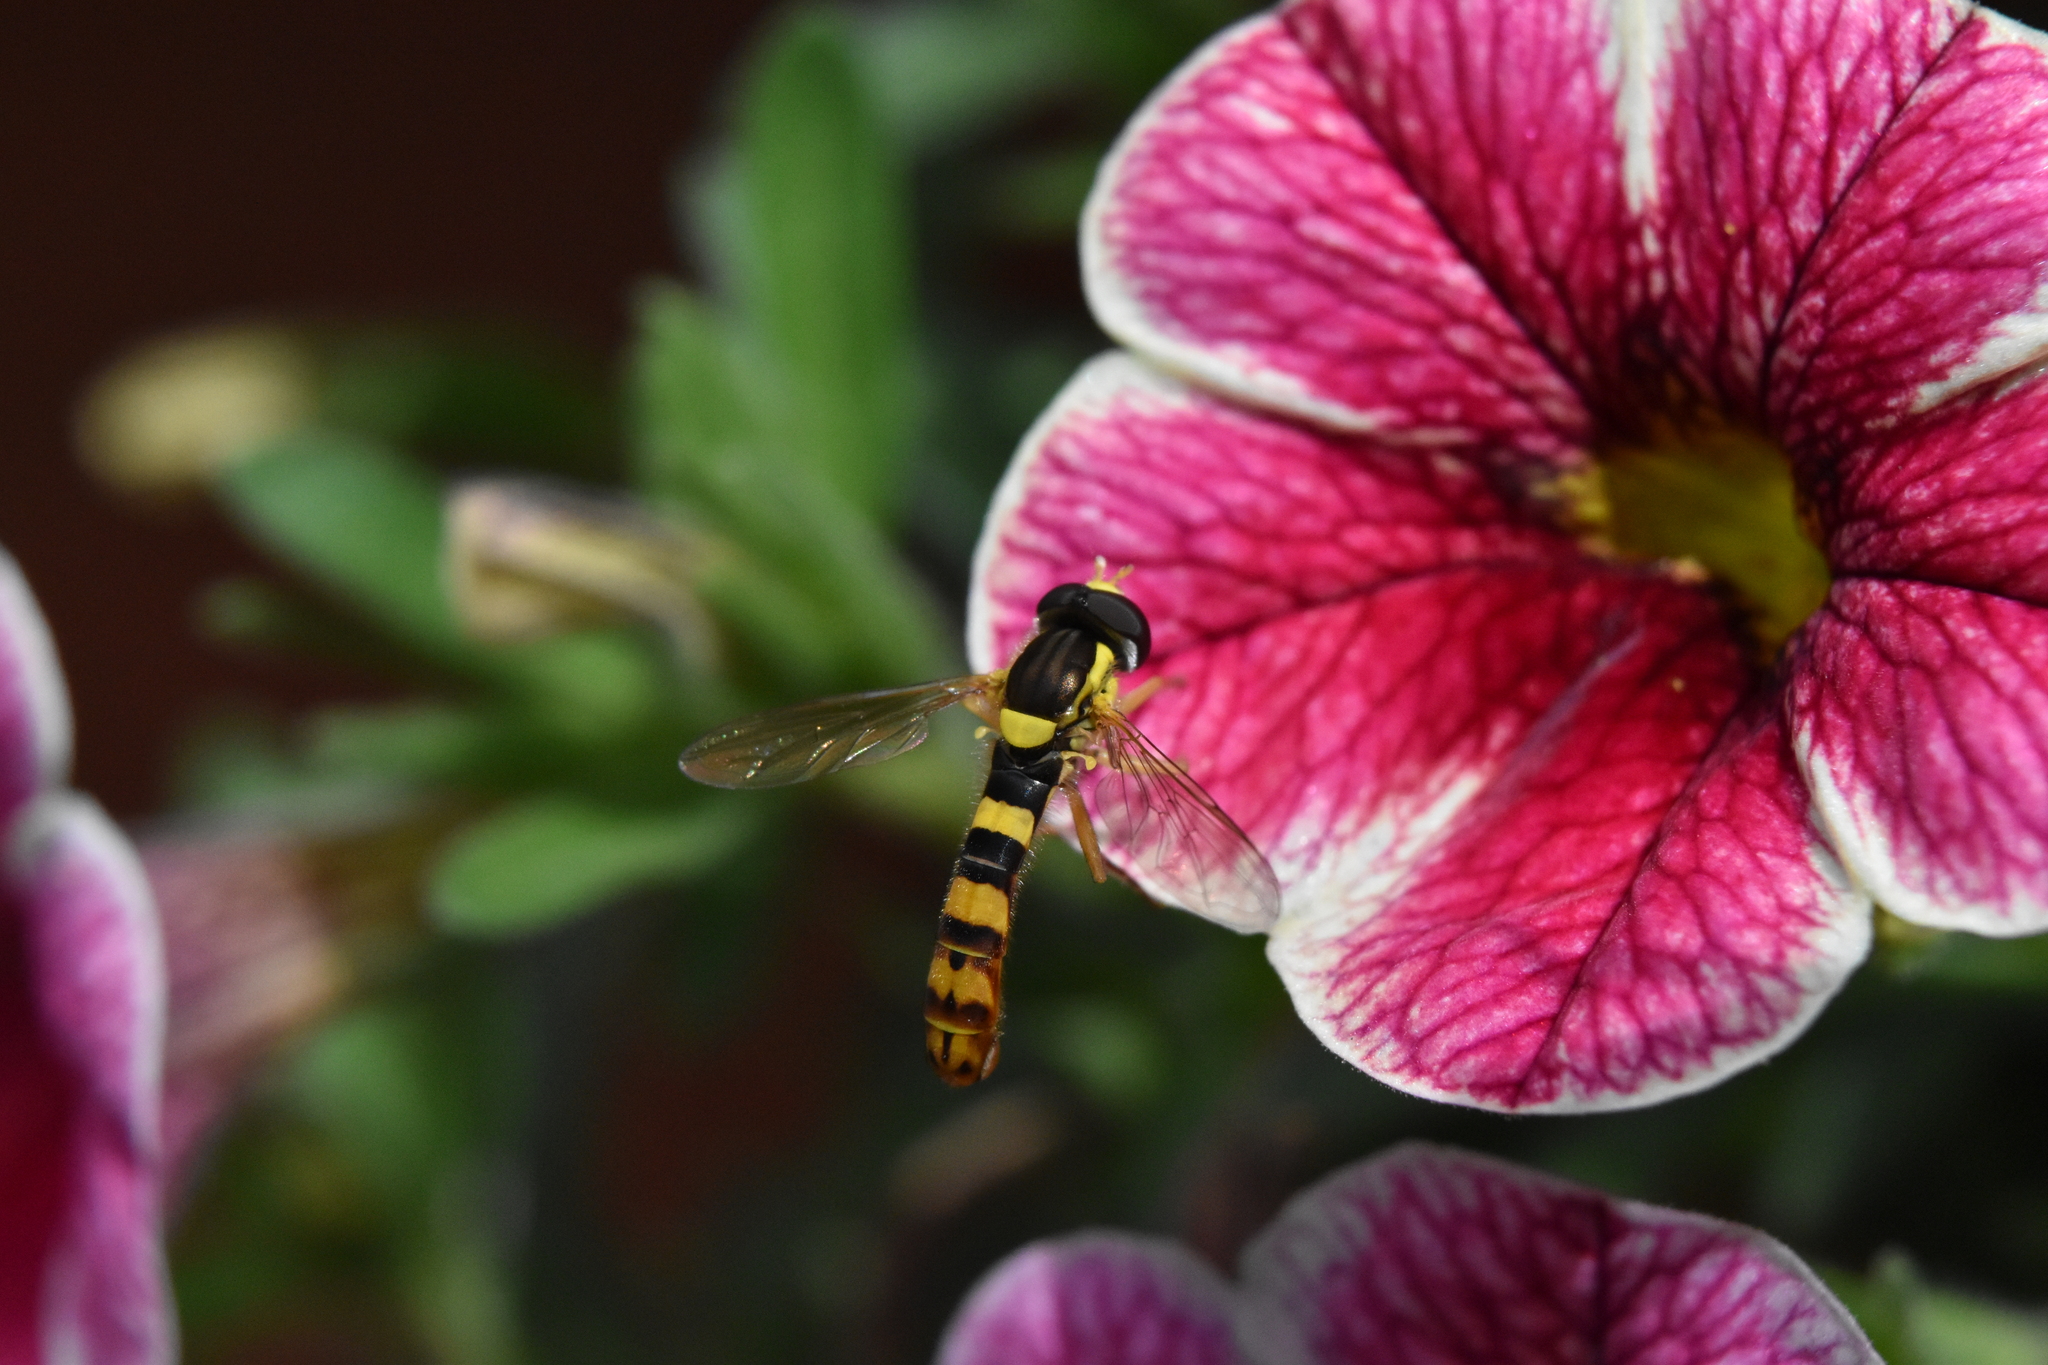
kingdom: Animalia
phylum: Arthropoda
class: Insecta
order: Diptera
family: Syrphidae
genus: Sphaerophoria
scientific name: Sphaerophoria scripta
